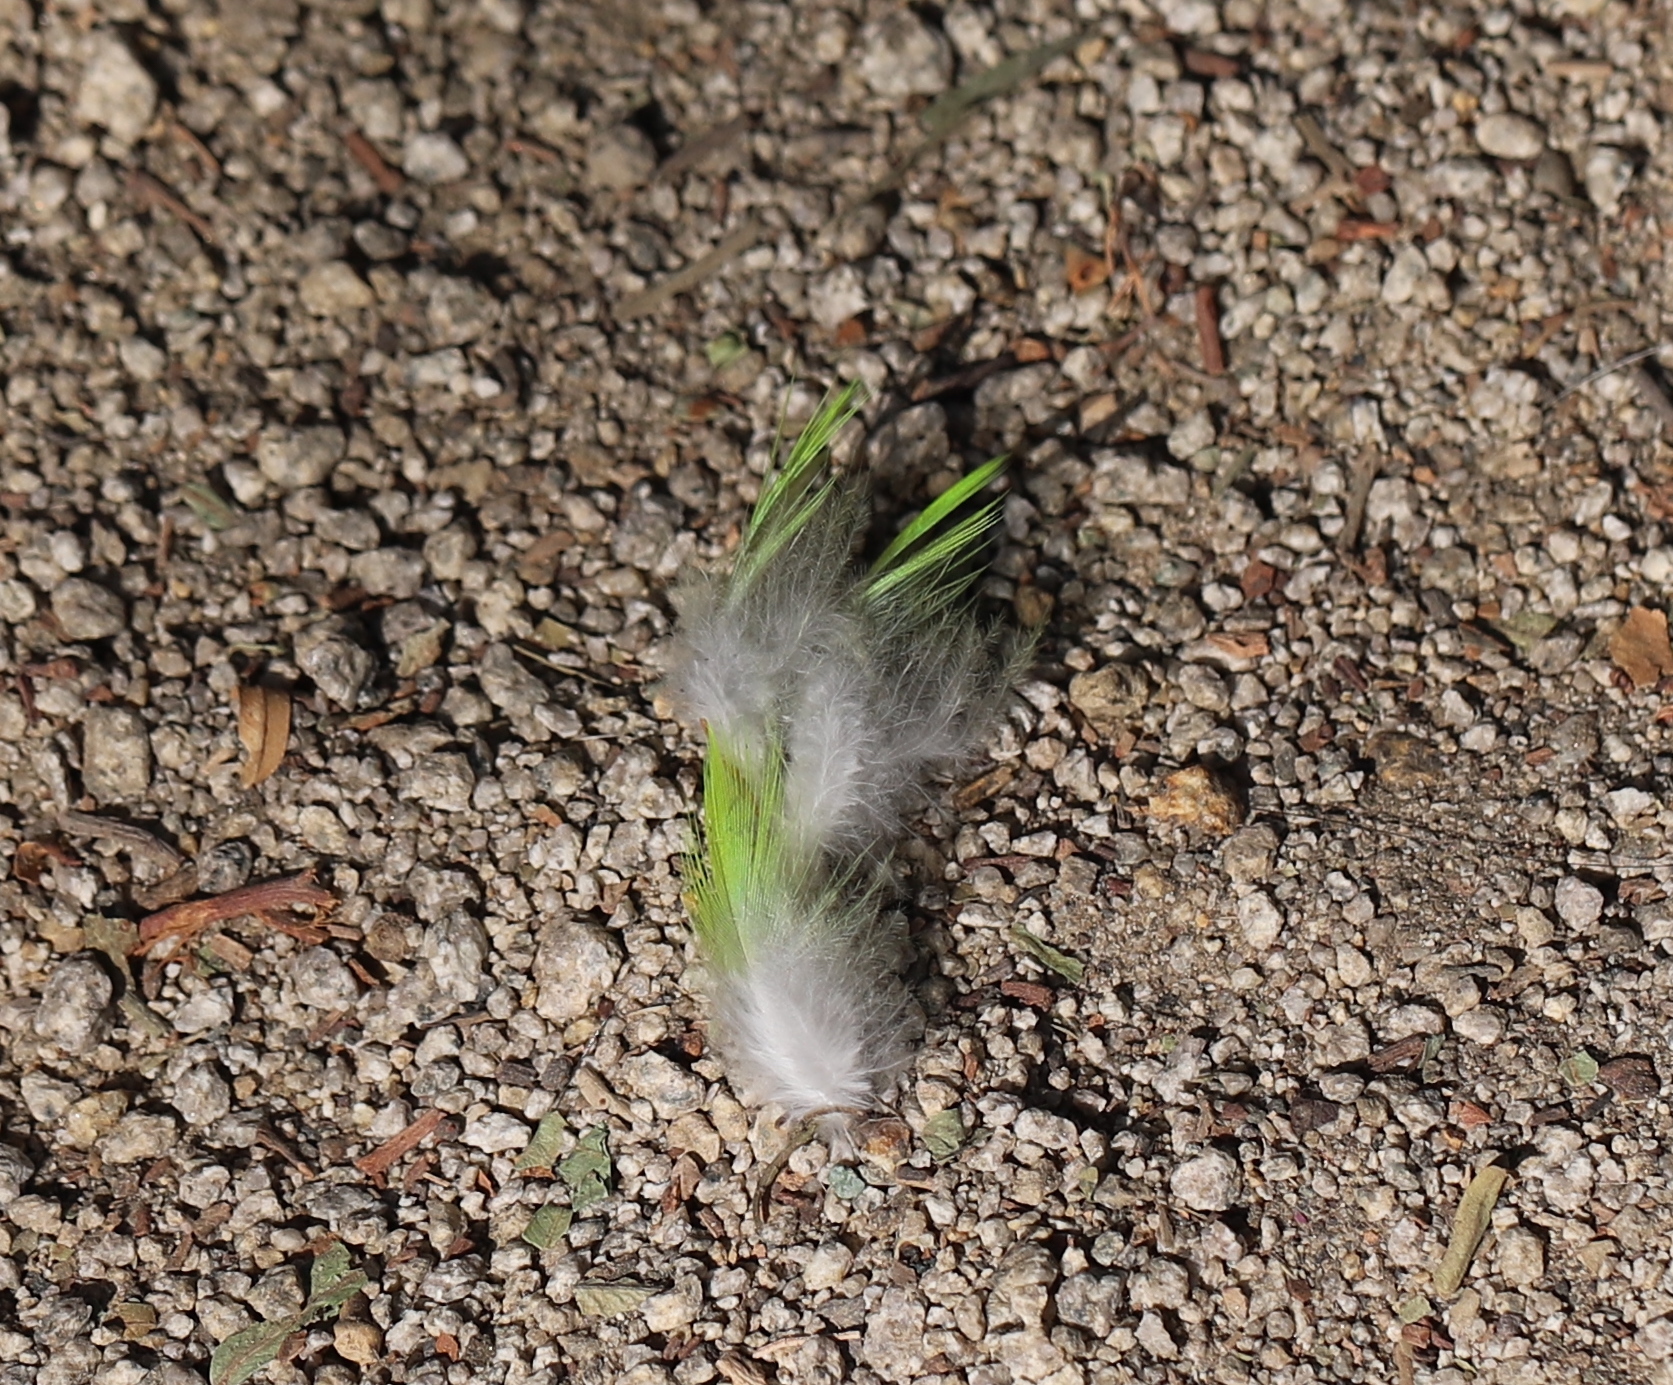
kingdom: Animalia
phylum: Chordata
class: Aves
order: Psittaciformes
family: Psittacidae
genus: Myiopsitta
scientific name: Myiopsitta monachus
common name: Monk parakeet
